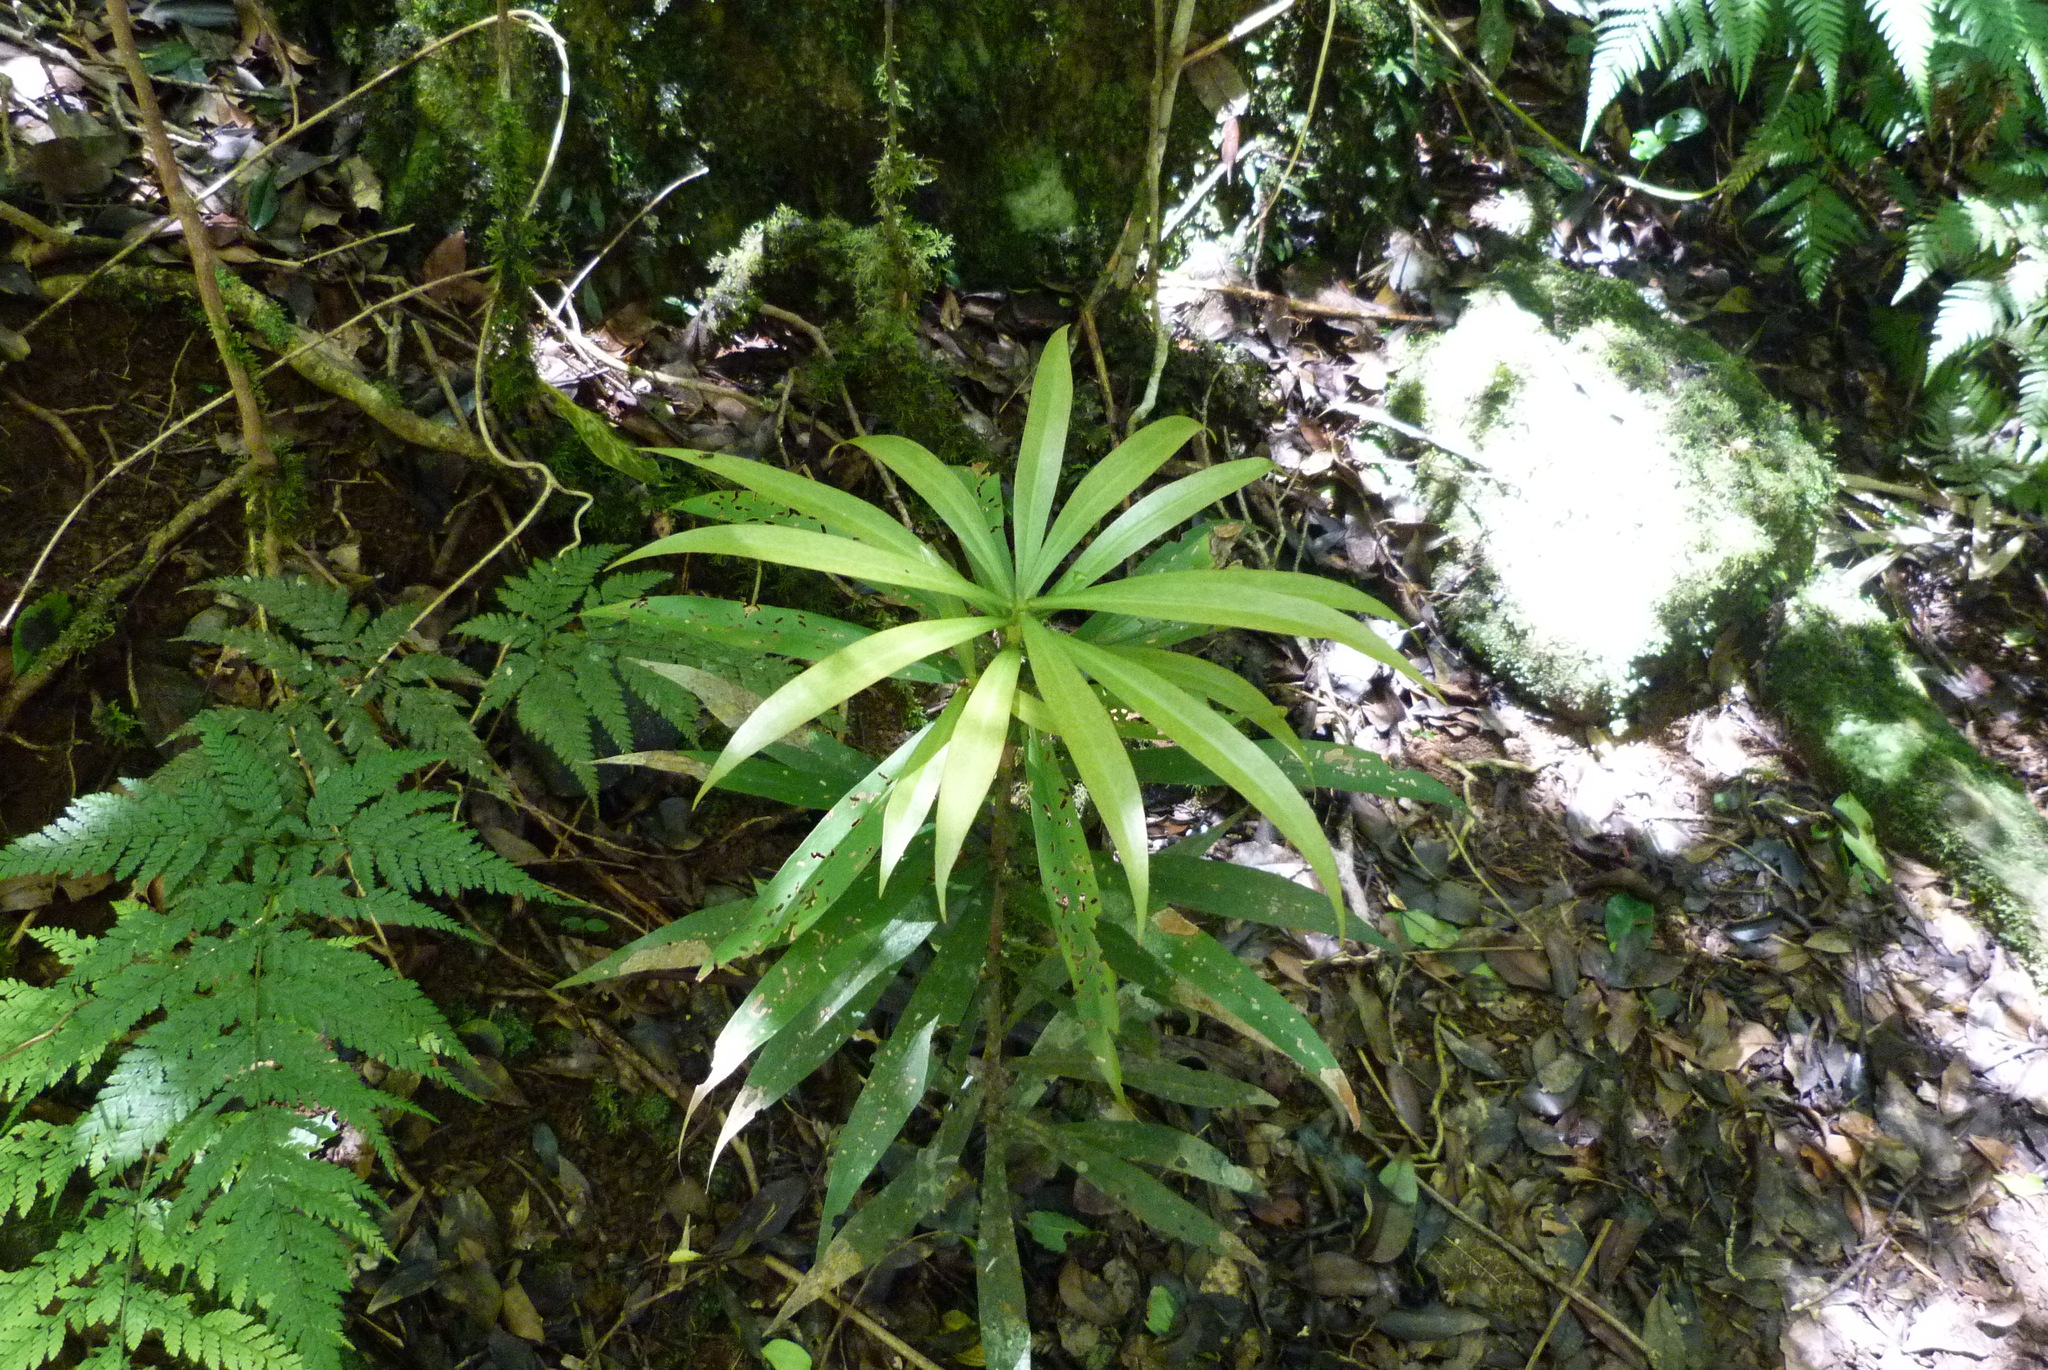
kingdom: Plantae
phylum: Tracheophyta
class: Magnoliopsida
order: Canellales
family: Winteraceae
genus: Drimys
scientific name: Drimys insipida
